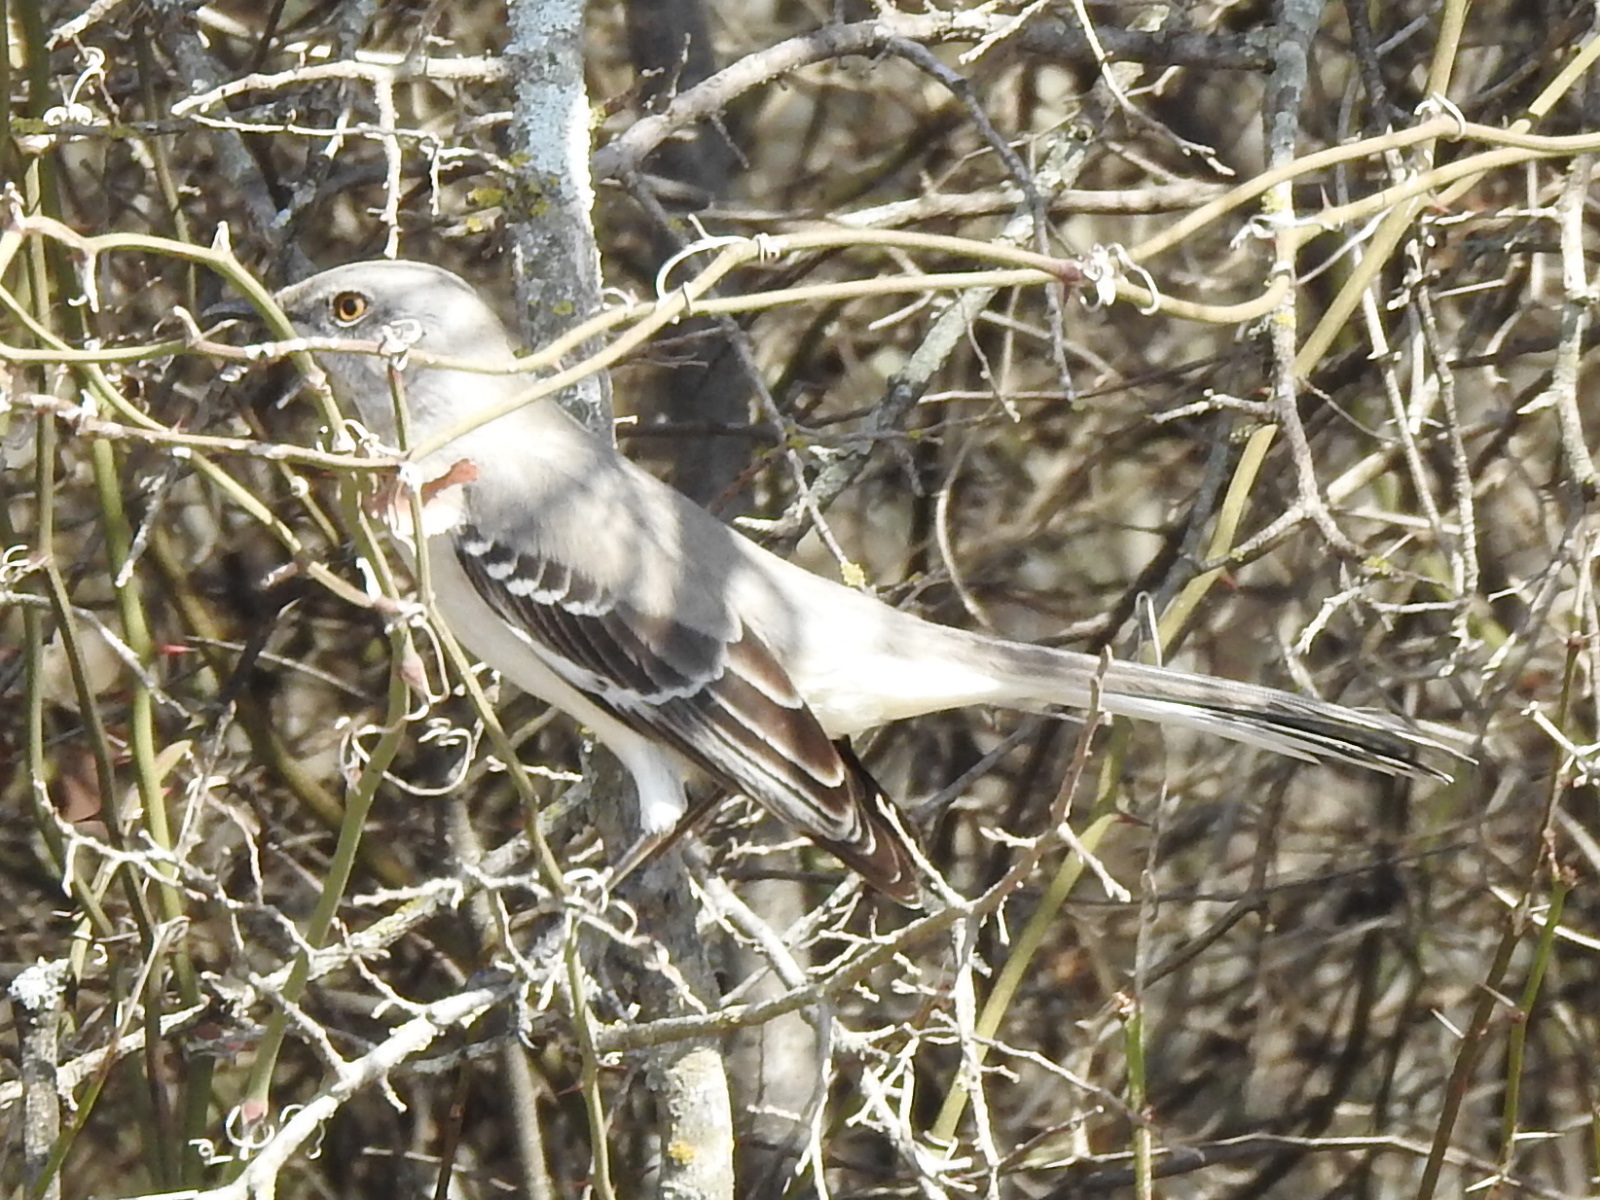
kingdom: Animalia
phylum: Chordata
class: Aves
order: Passeriformes
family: Mimidae
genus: Mimus
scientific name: Mimus polyglottos
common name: Northern mockingbird
